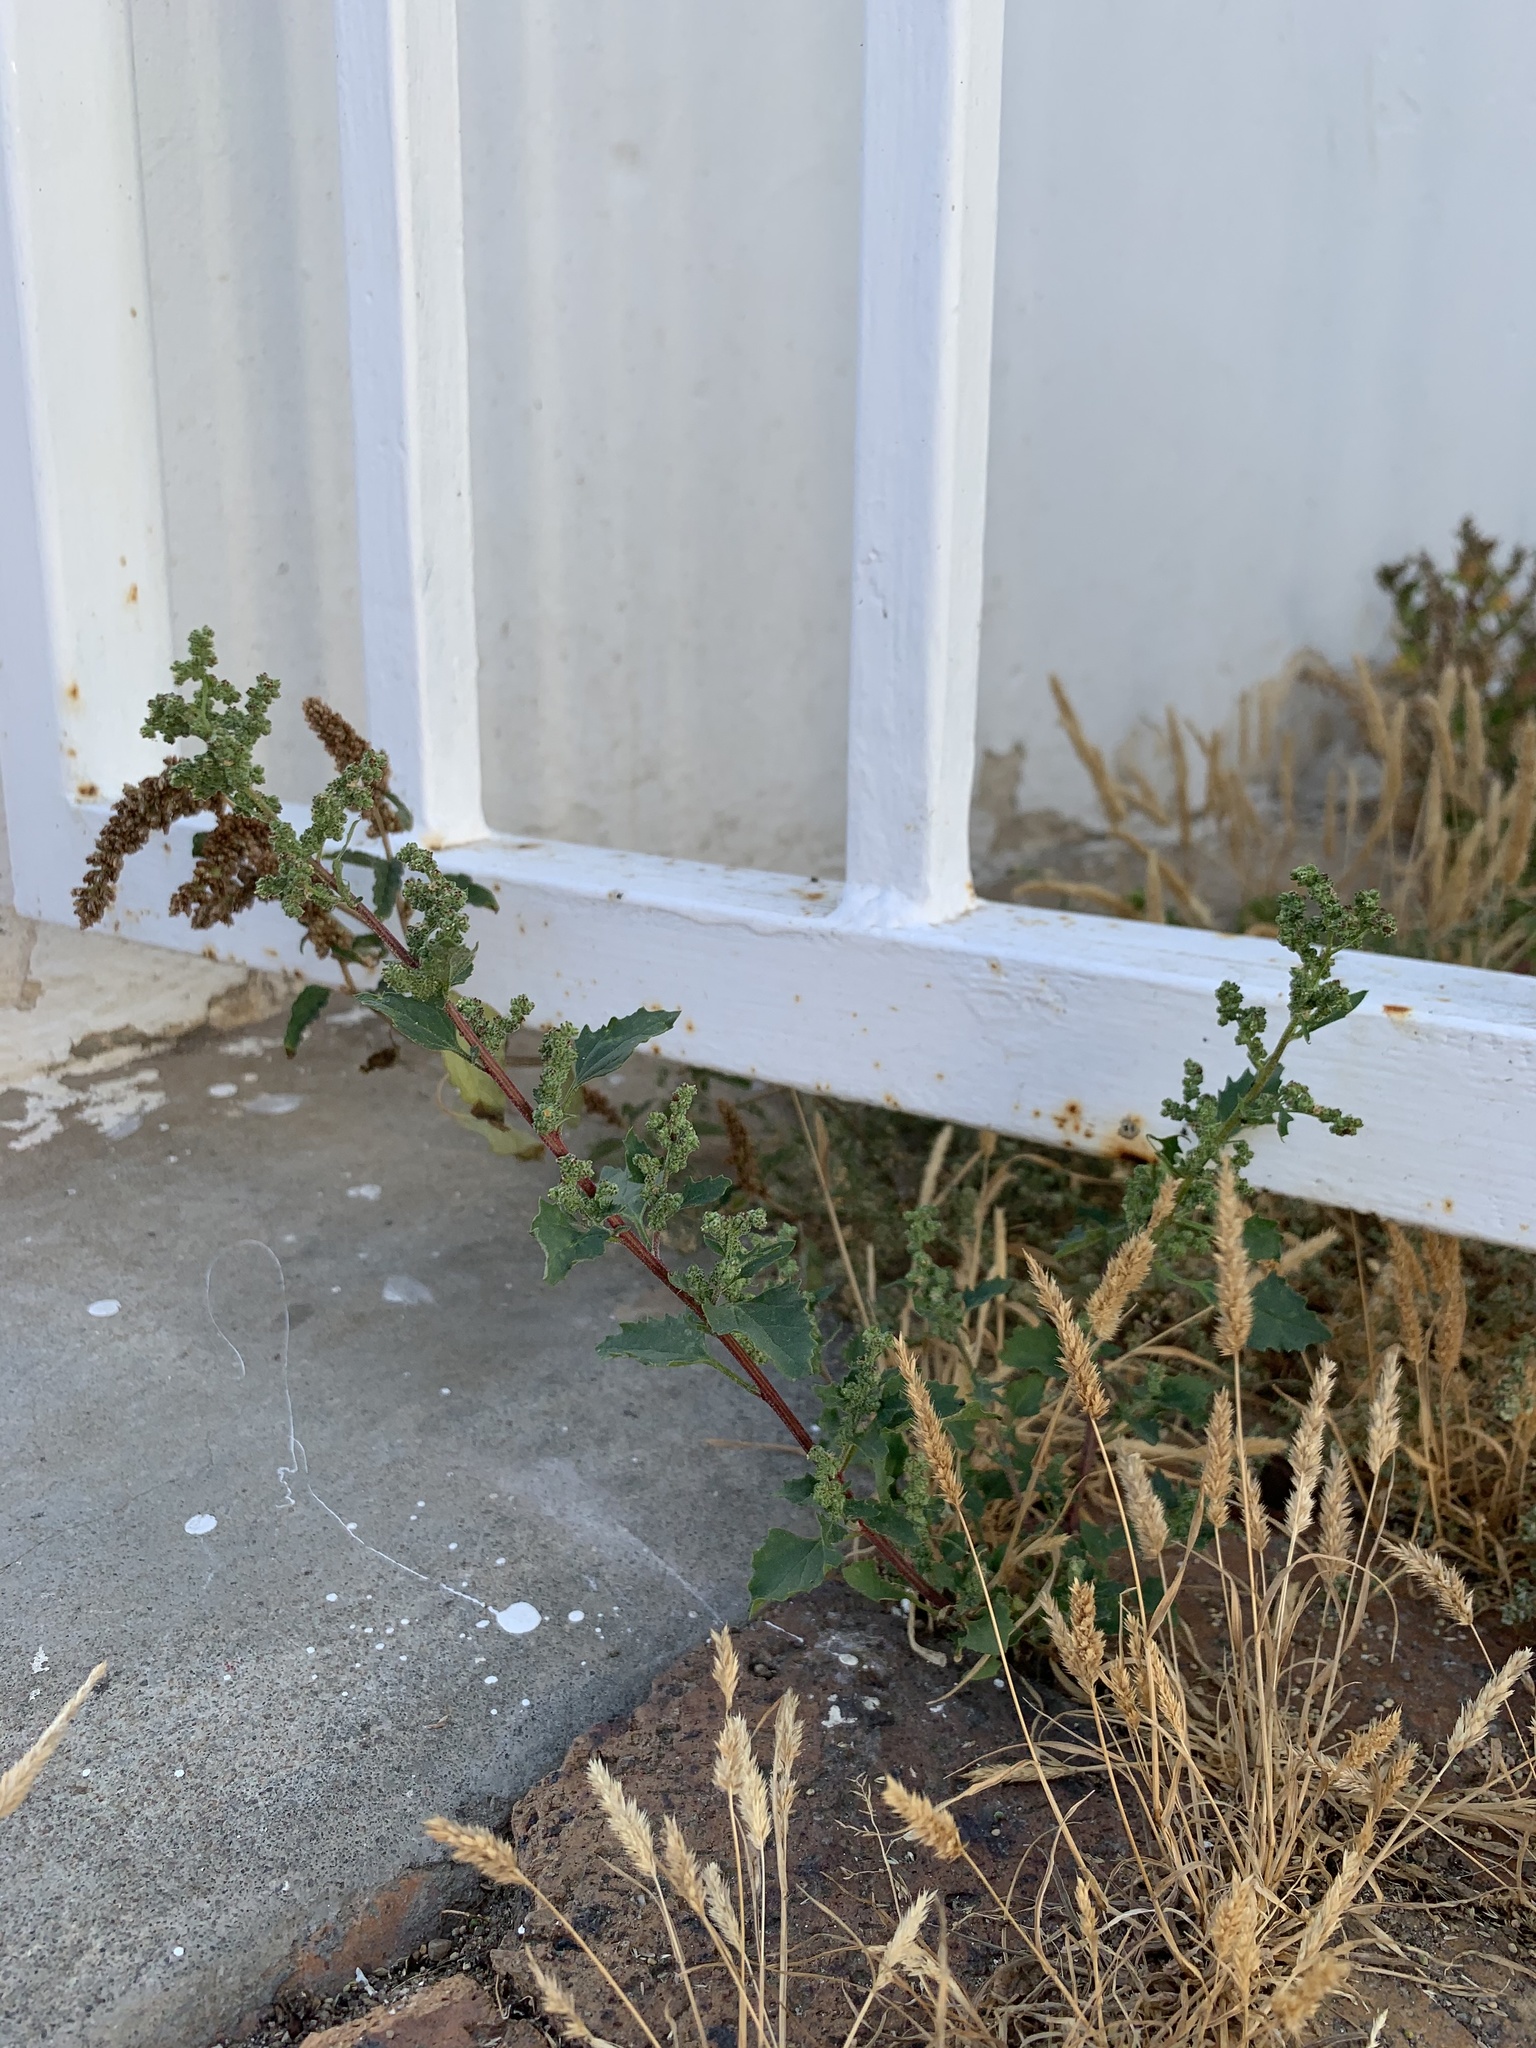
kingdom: Plantae
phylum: Tracheophyta
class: Magnoliopsida
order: Caryophyllales
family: Amaranthaceae
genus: Chenopodiastrum
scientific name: Chenopodiastrum murale
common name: Sowbane
